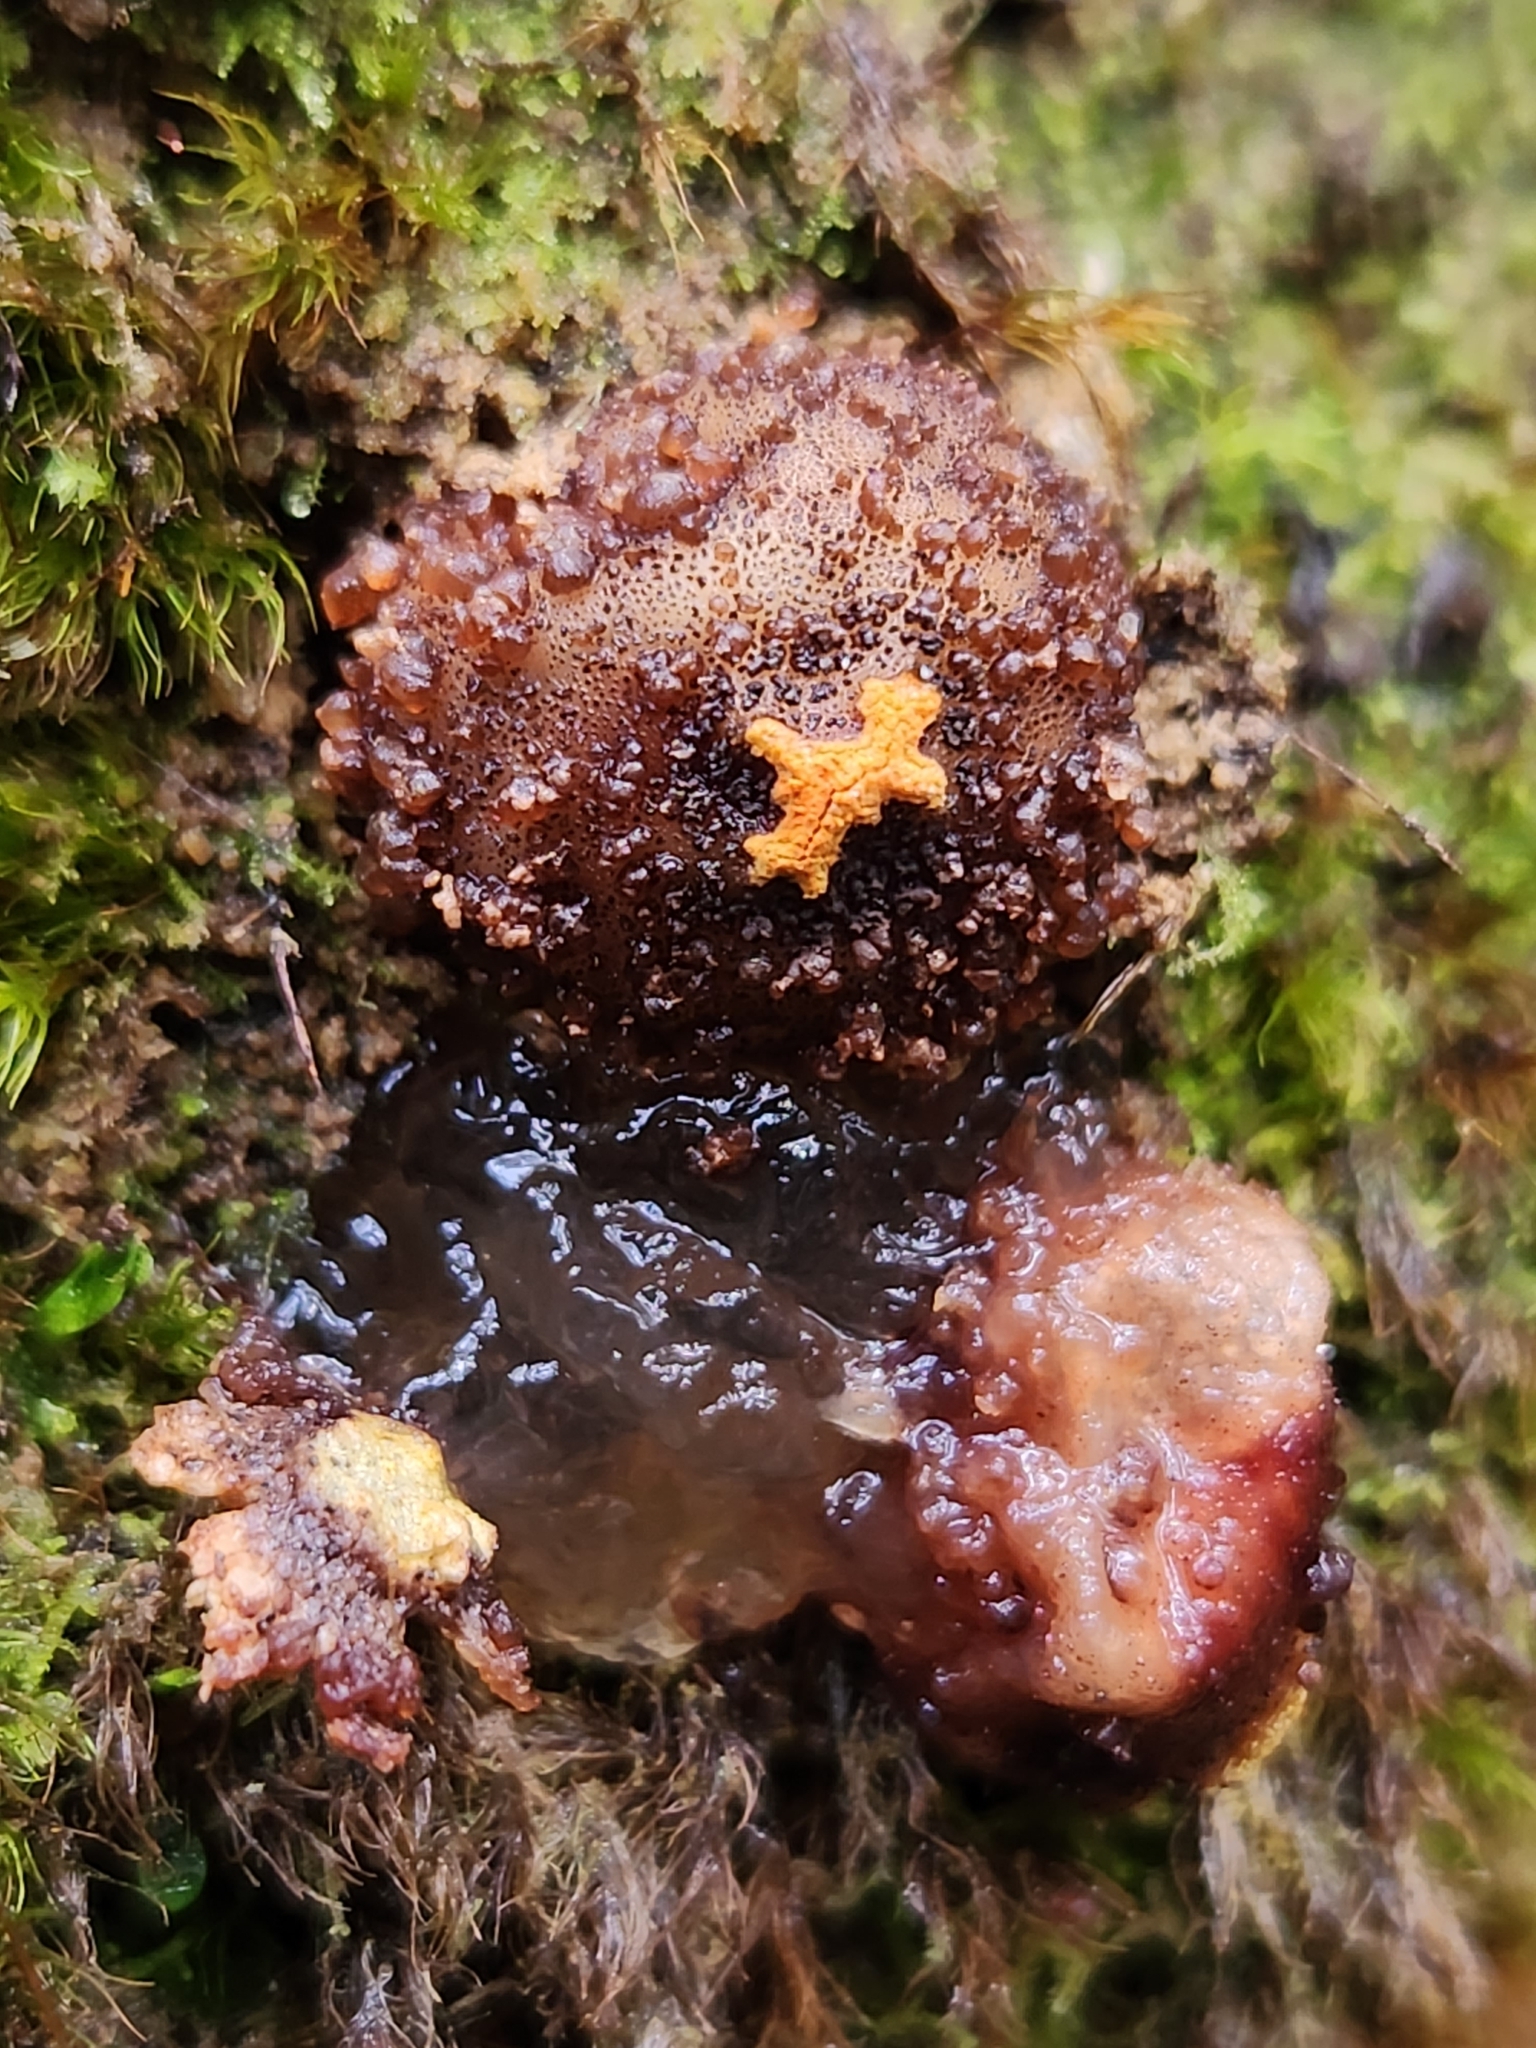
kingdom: Fungi
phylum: Basidiomycota
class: Agaricomycetes
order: Boletales
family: Calostomataceae
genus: Calostoma
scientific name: Calostoma rodwayi
